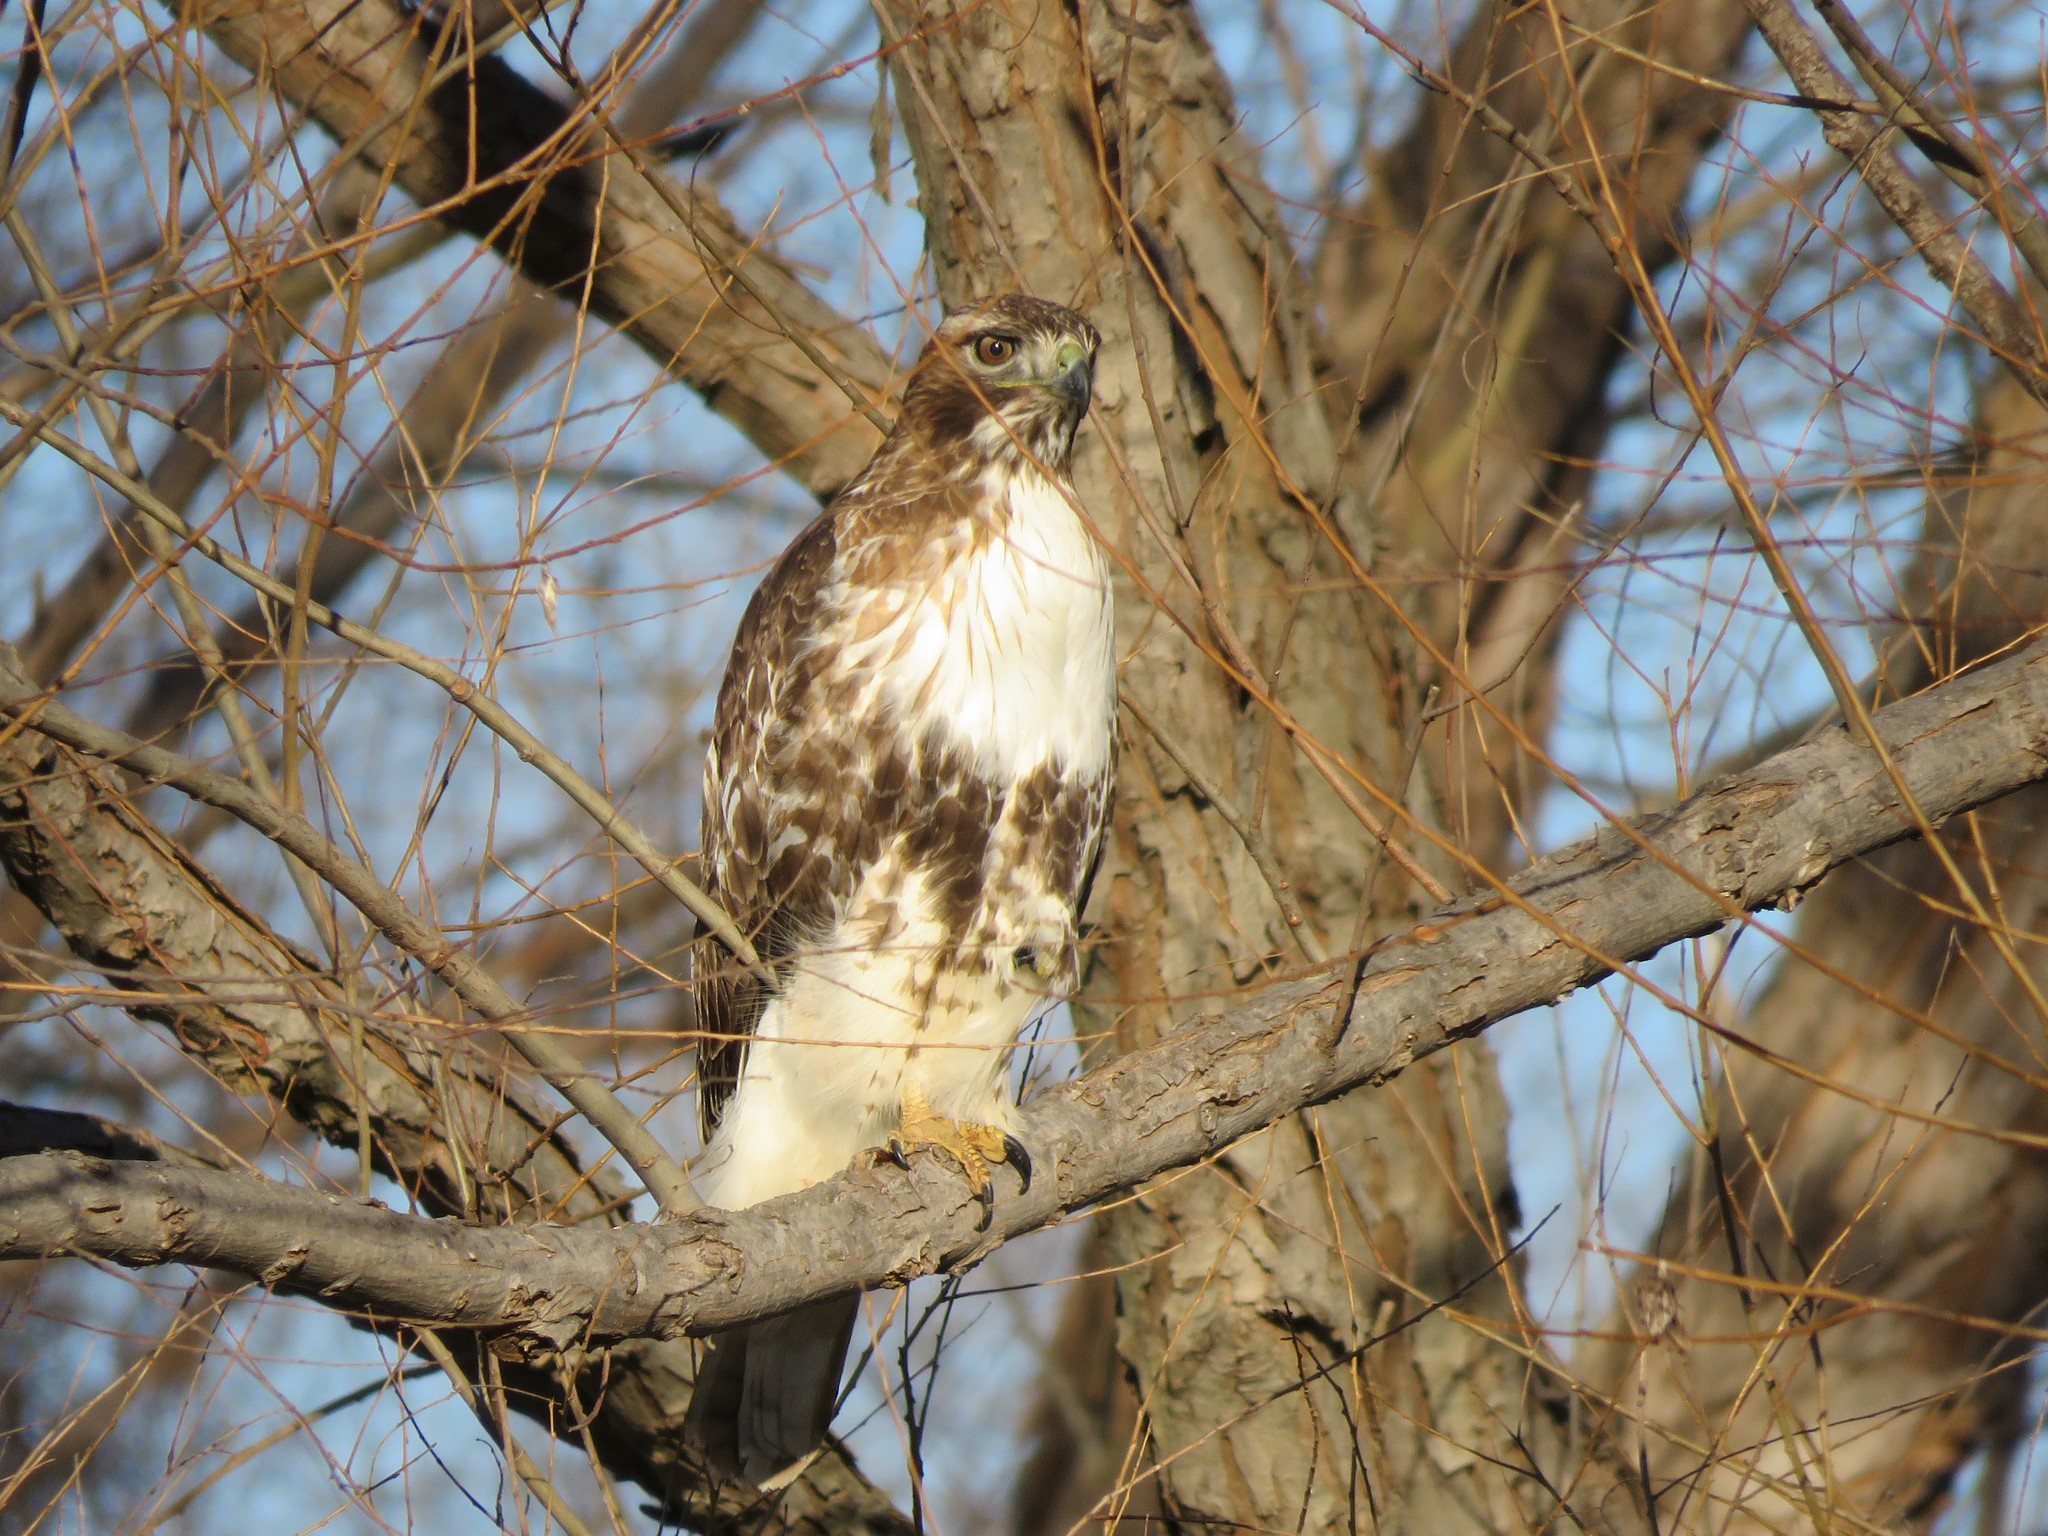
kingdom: Animalia
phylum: Chordata
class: Aves
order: Accipitriformes
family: Accipitridae
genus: Buteo
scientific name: Buteo jamaicensis
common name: Red-tailed hawk
